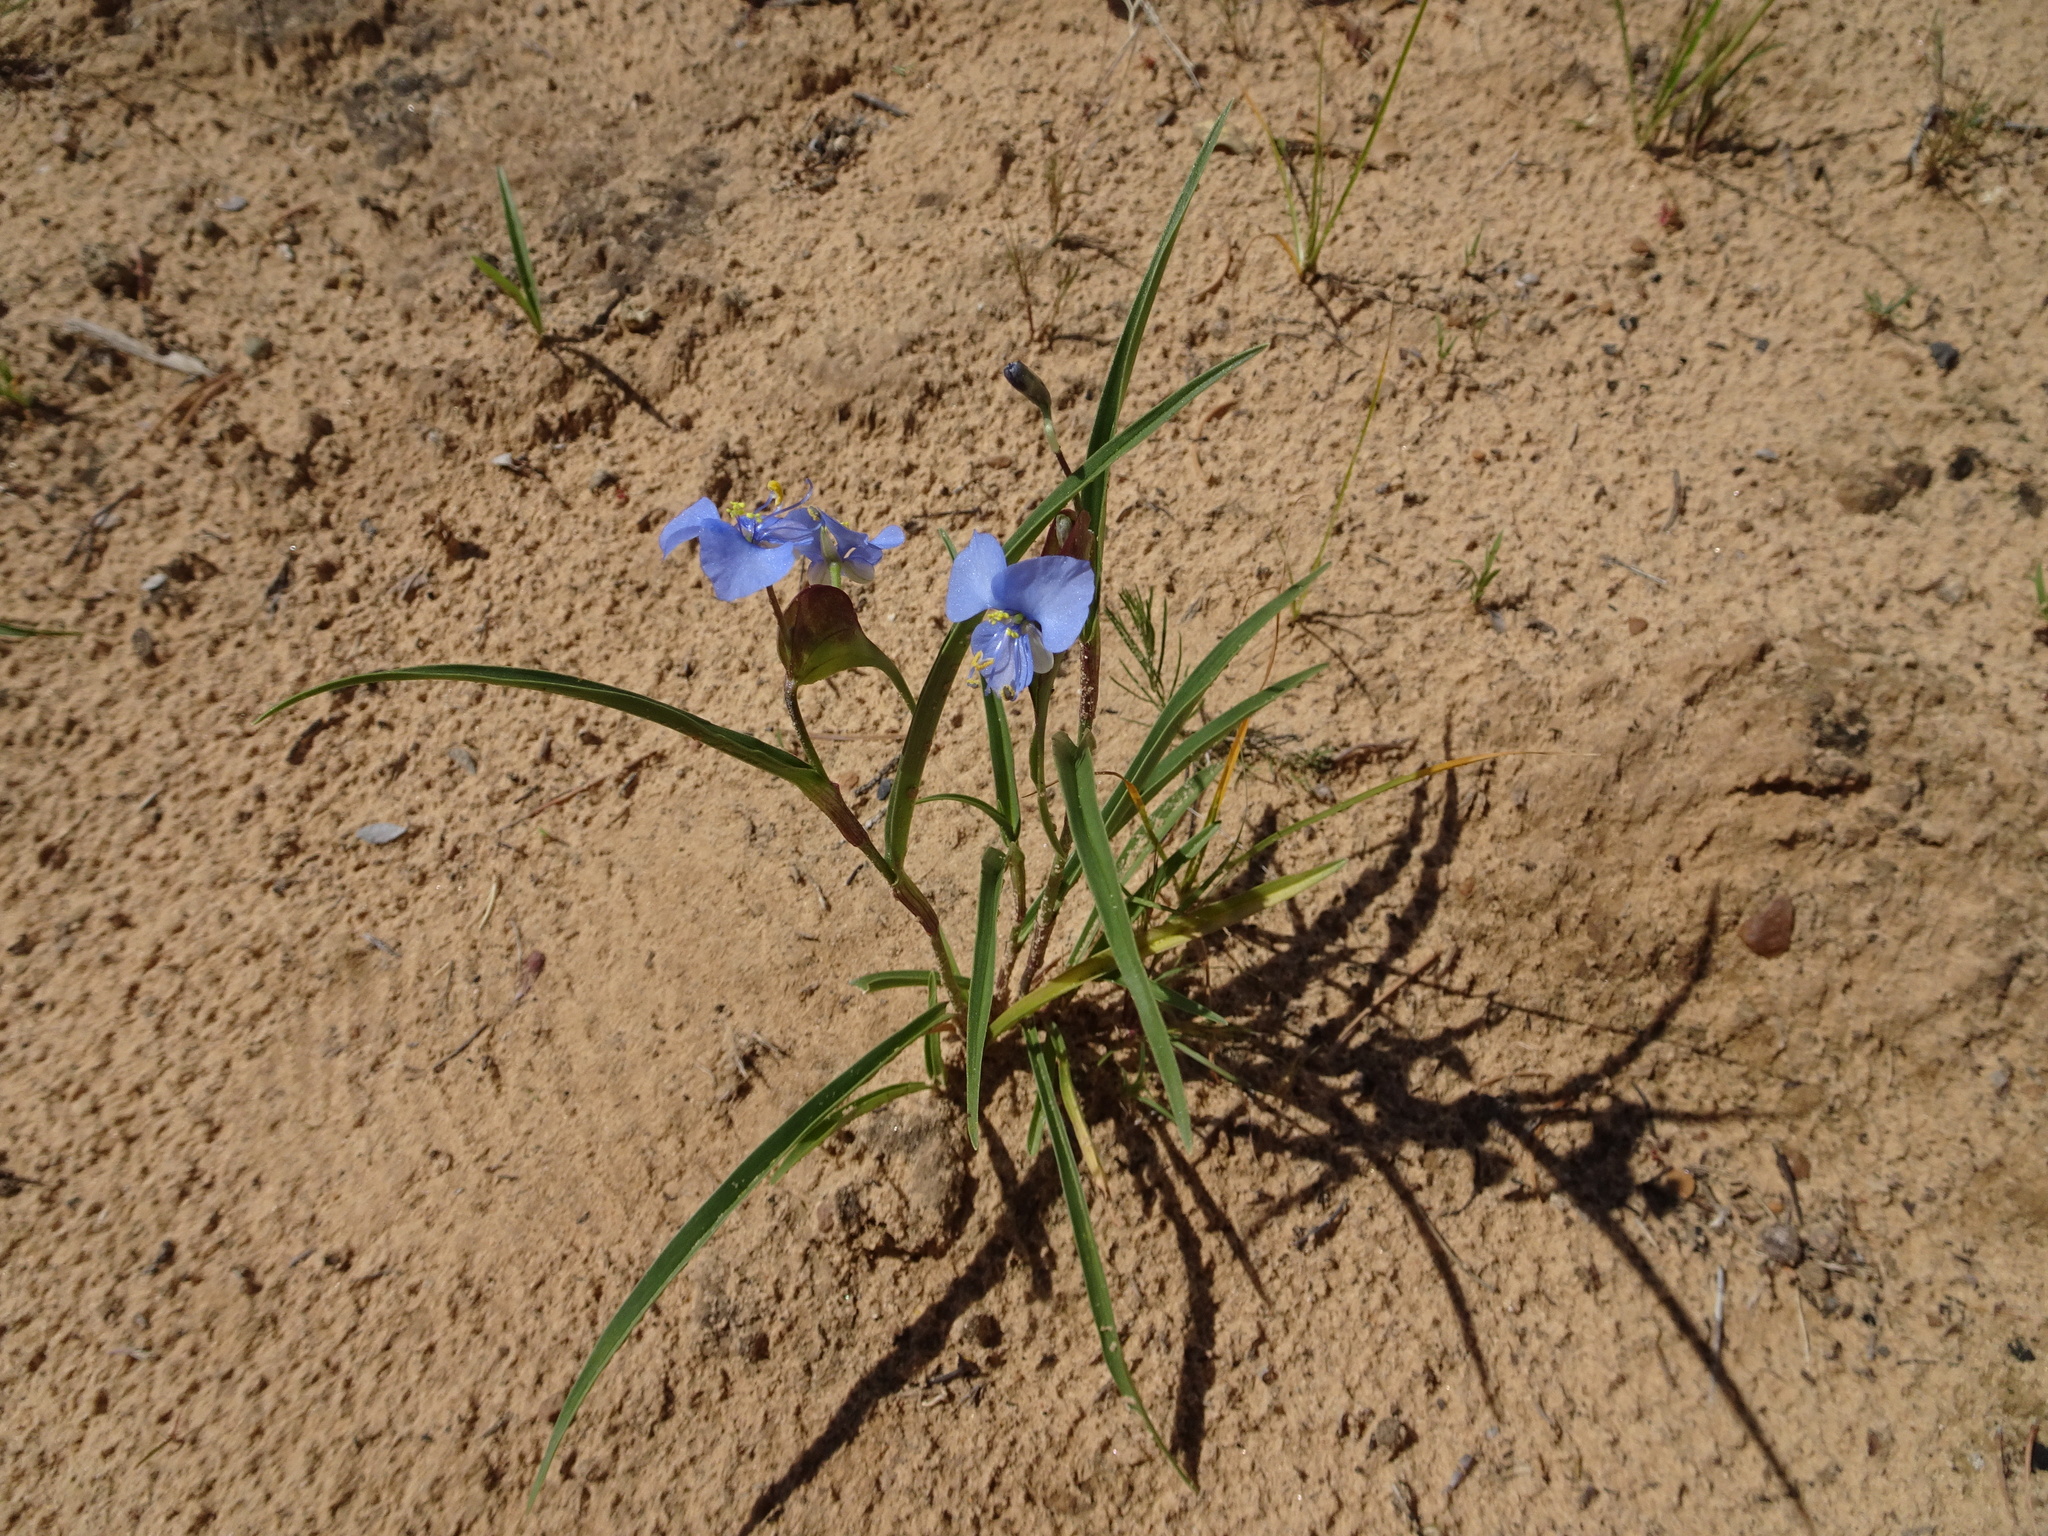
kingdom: Plantae
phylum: Tracheophyta
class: Liliopsida
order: Commelinales
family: Commelinaceae
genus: Commelina
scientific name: Commelina dianthifolia
